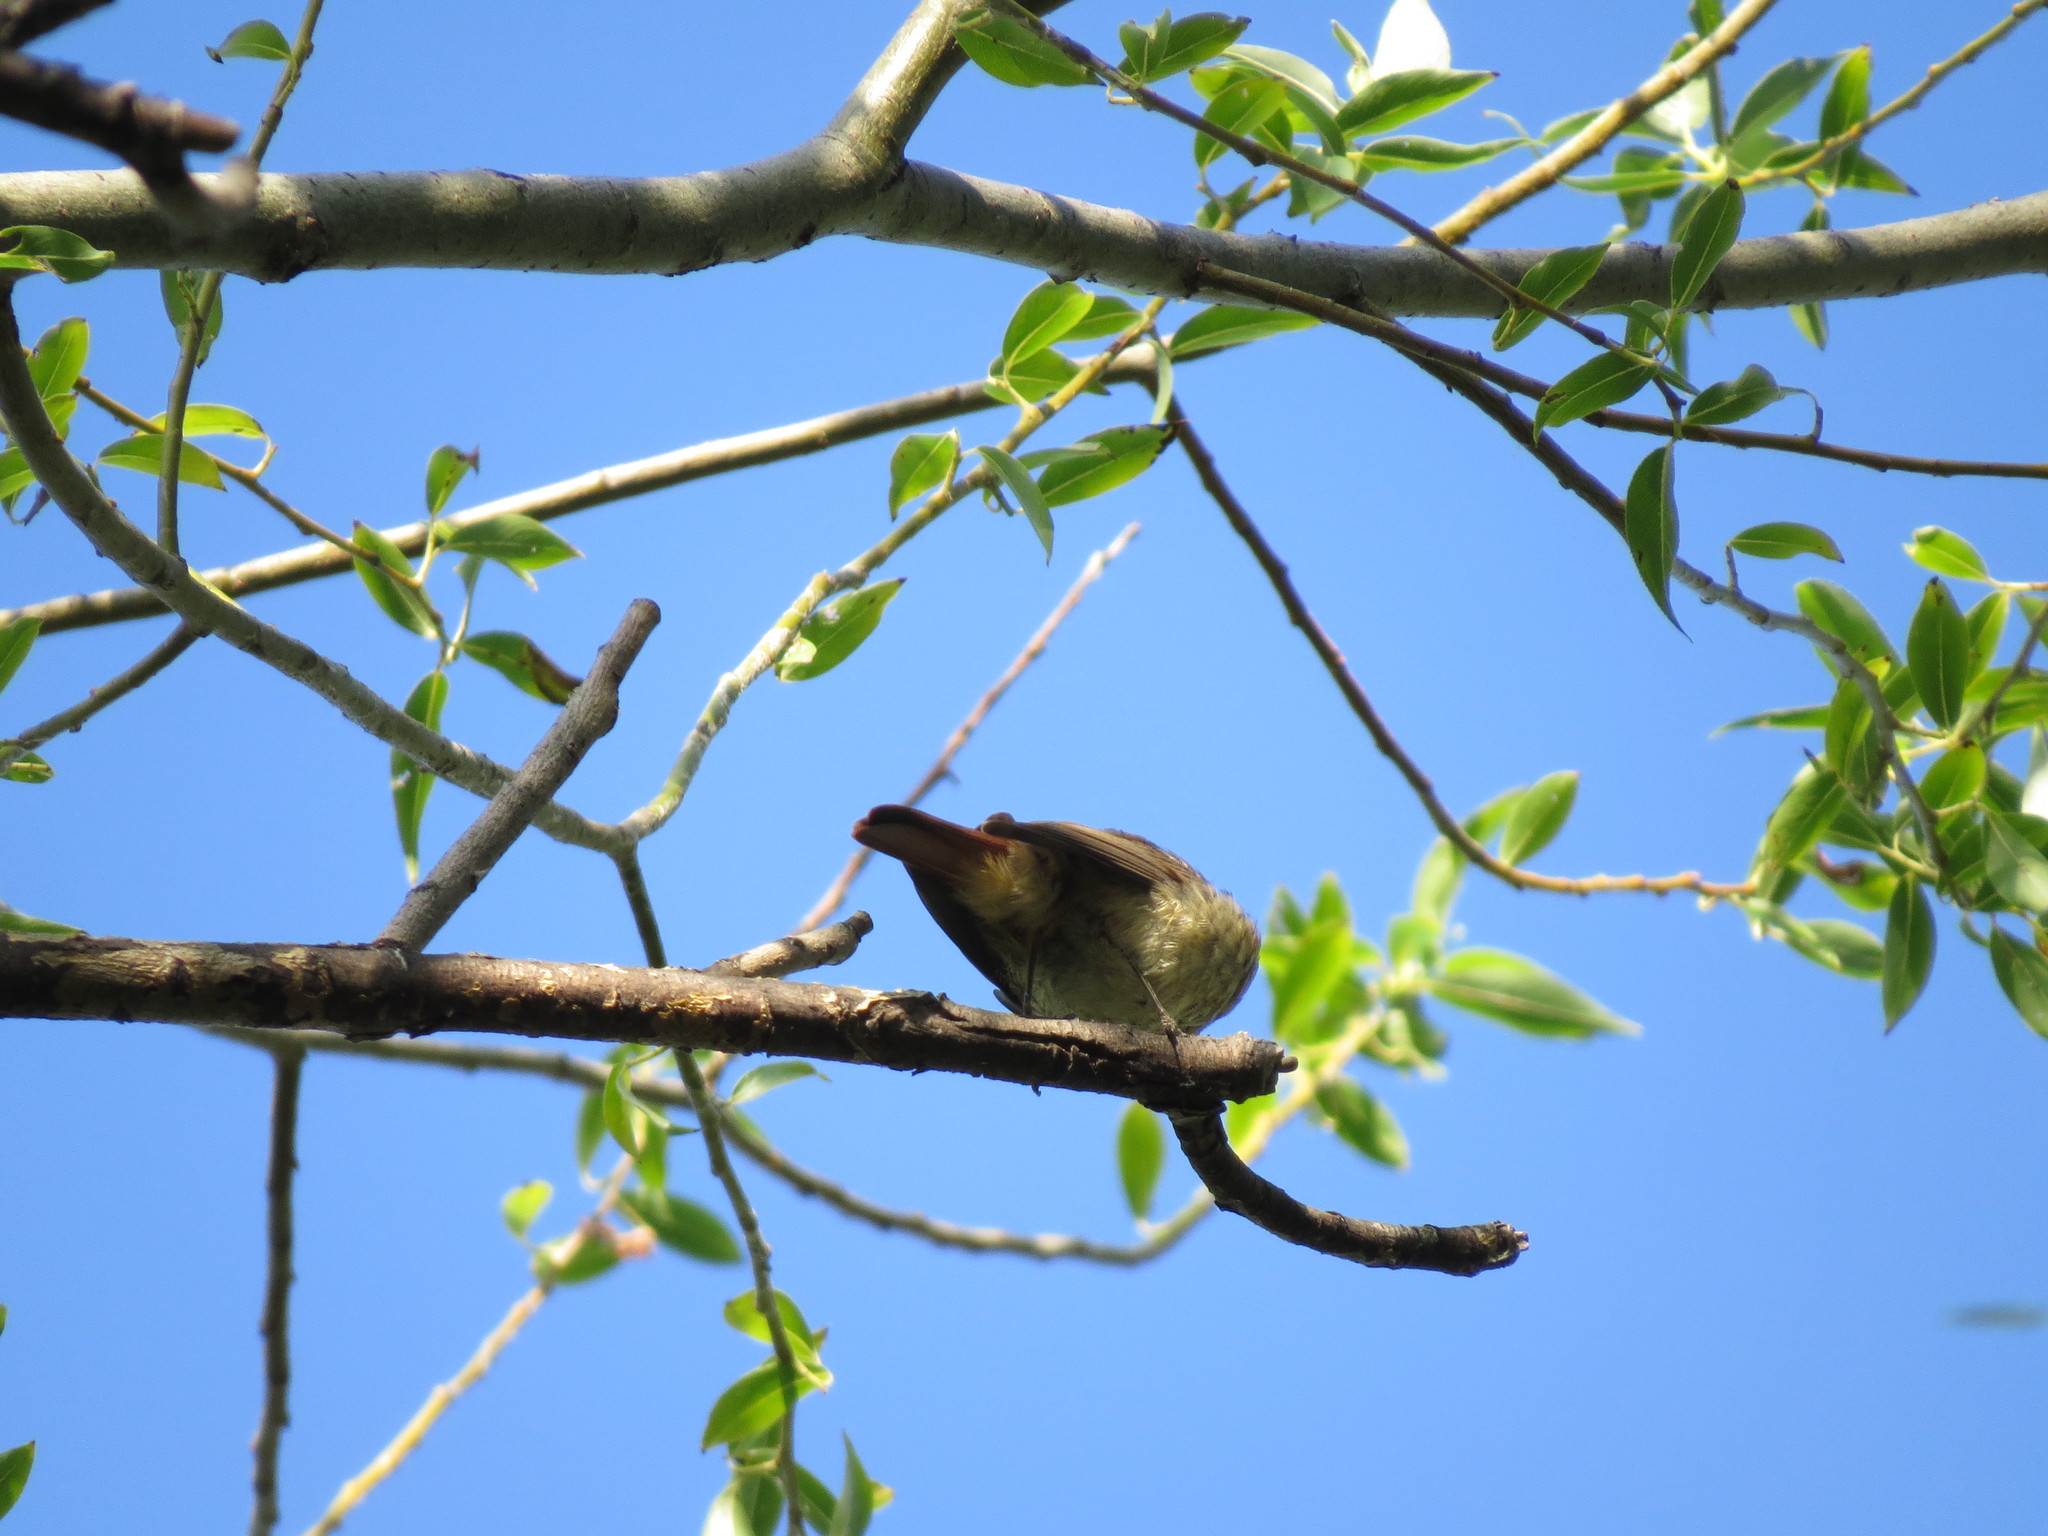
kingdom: Animalia
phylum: Chordata
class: Aves
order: Passeriformes
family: Muscicapidae
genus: Phoenicurus
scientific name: Phoenicurus phoenicurus
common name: Common redstart
